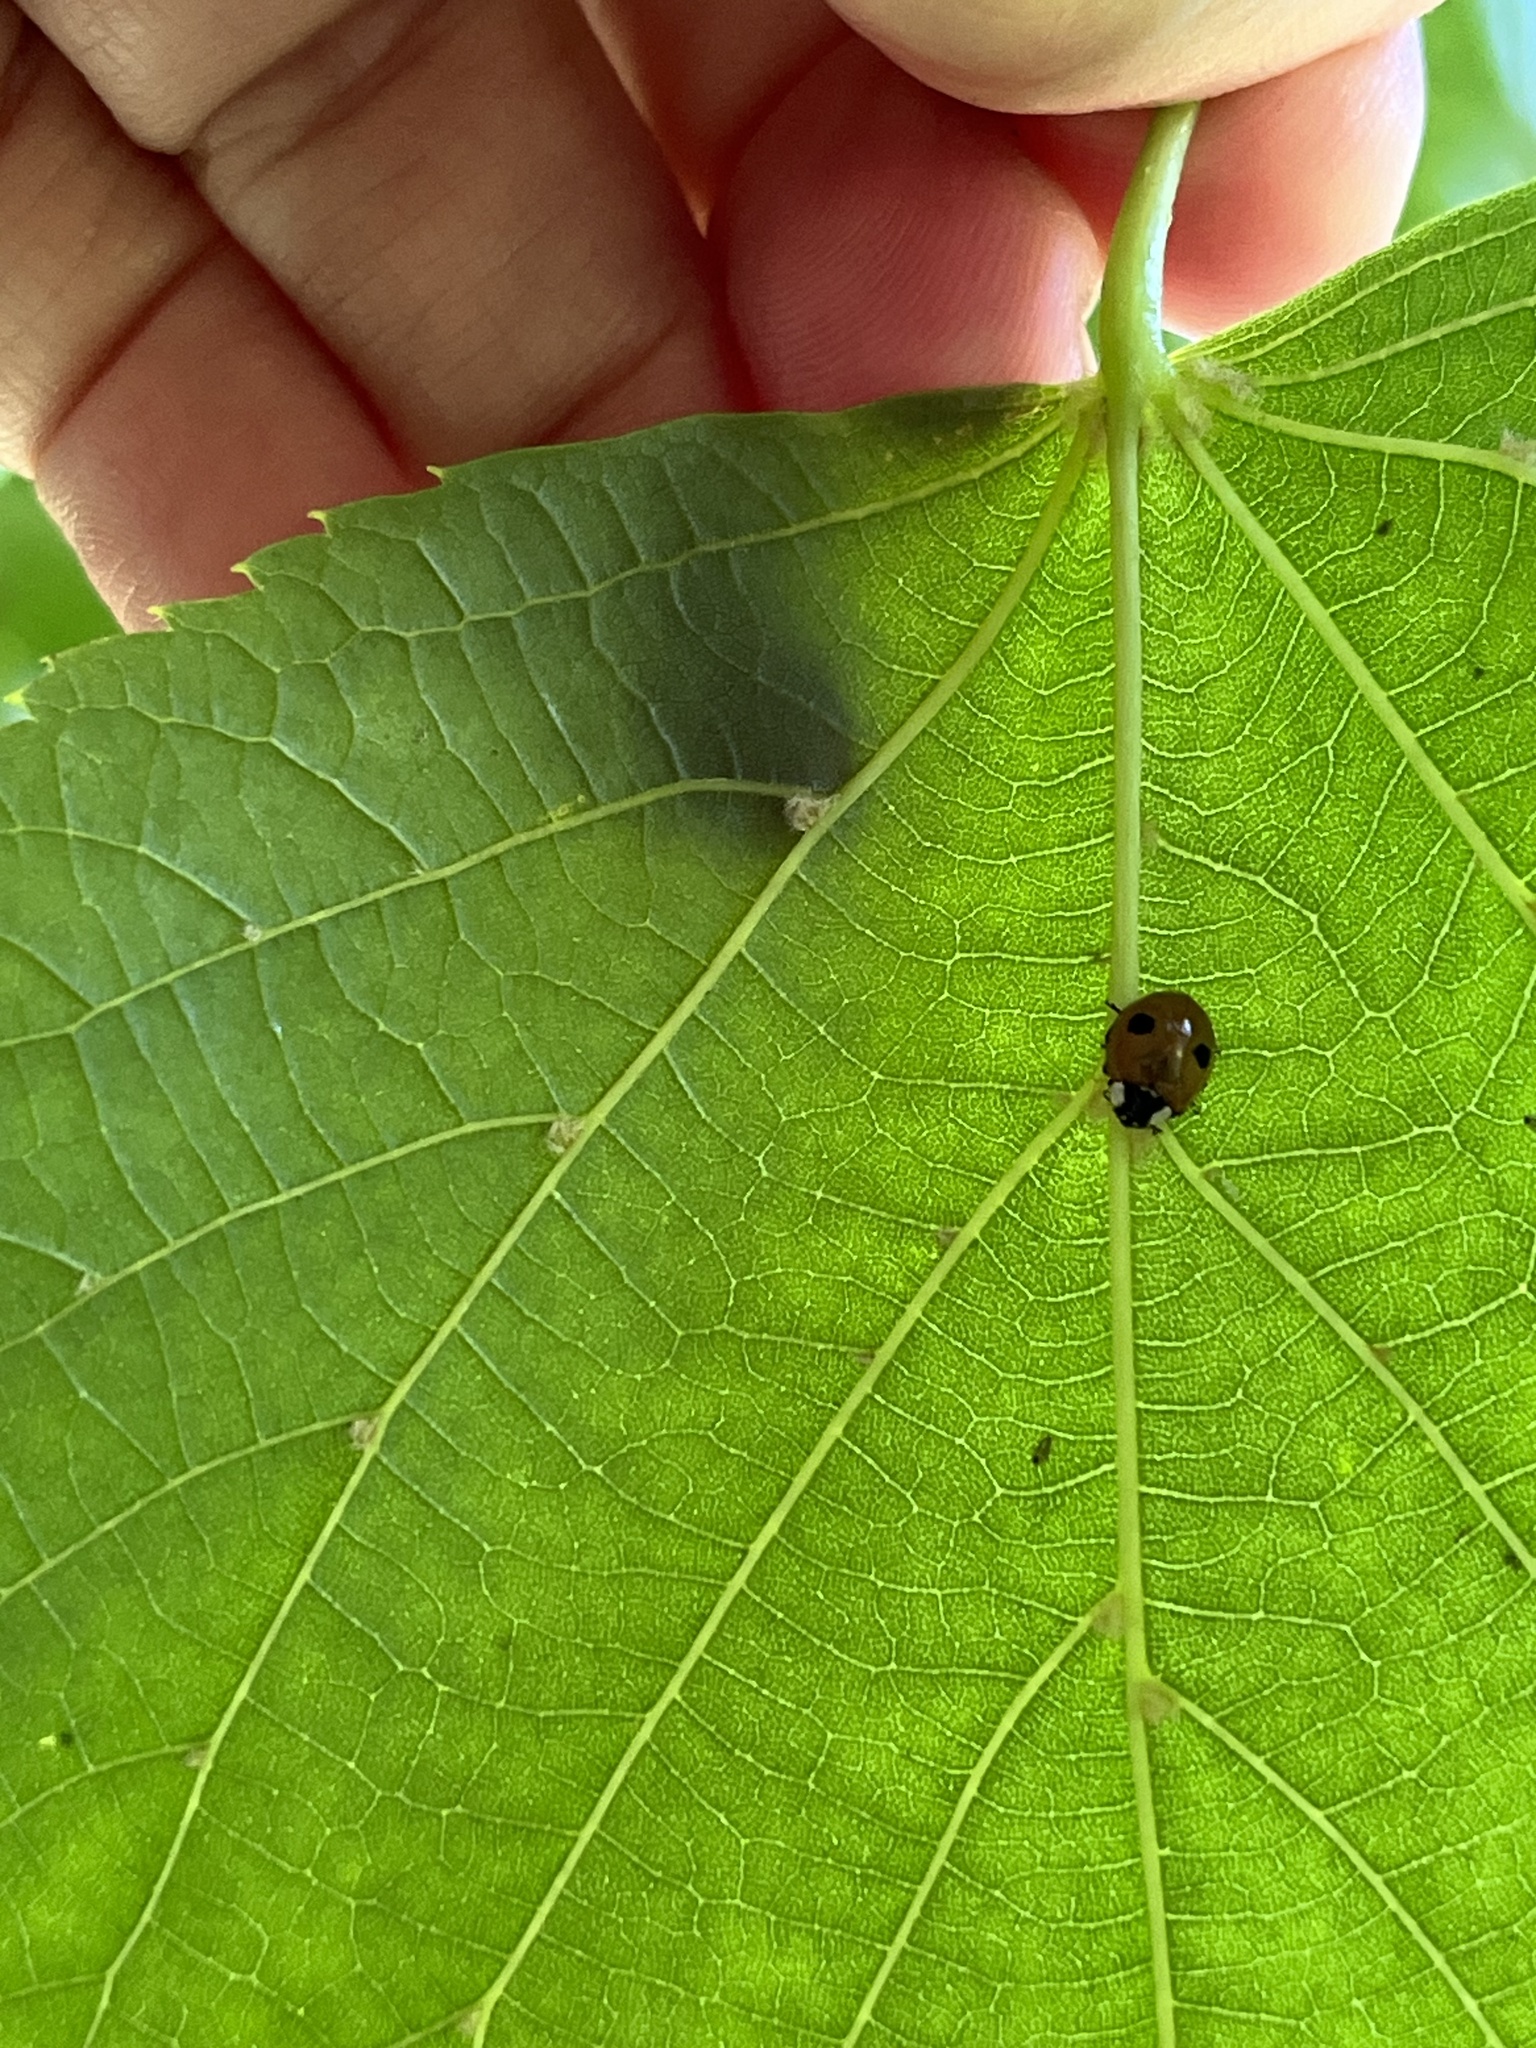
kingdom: Animalia
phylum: Arthropoda
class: Insecta
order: Coleoptera
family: Coccinellidae
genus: Adalia
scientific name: Adalia bipunctata
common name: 2-spot ladybird
